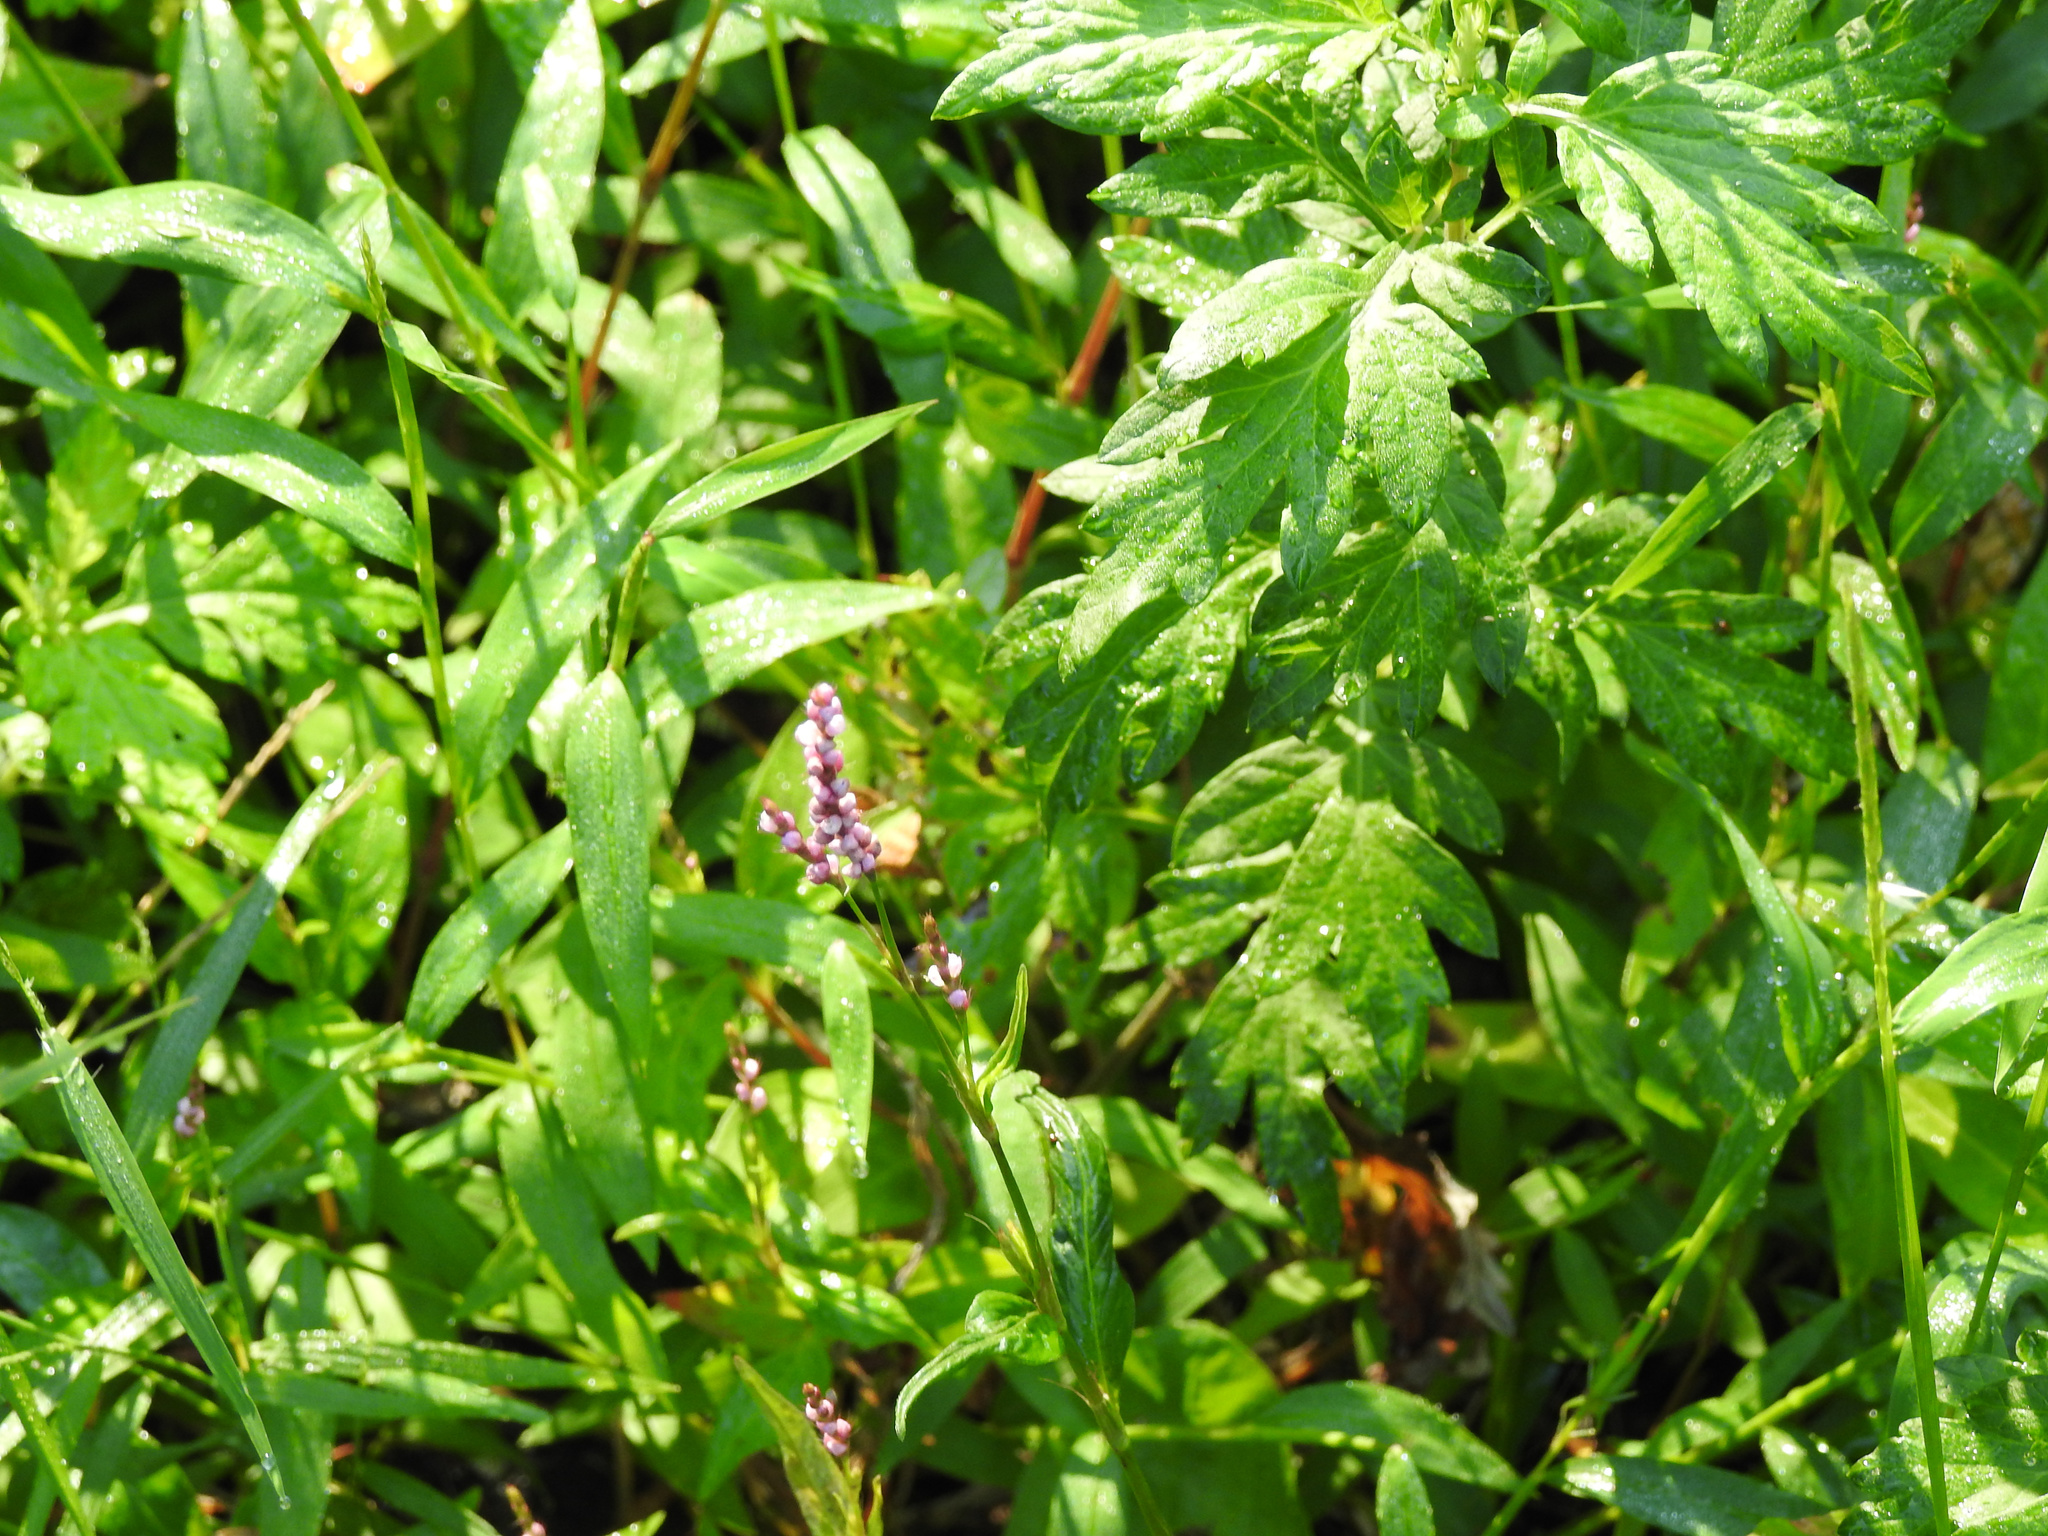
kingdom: Plantae
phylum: Tracheophyta
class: Magnoliopsida
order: Caryophyllales
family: Polygonaceae
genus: Persicaria
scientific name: Persicaria longiseta
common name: Bristly lady's-thumb
